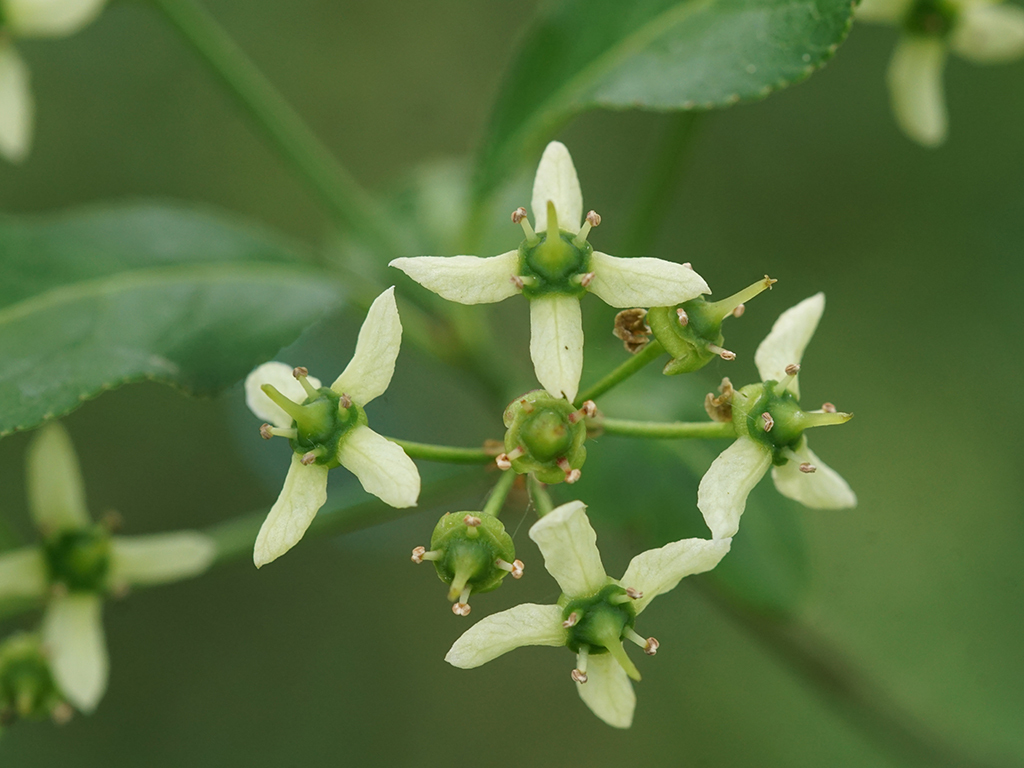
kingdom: Plantae
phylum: Tracheophyta
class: Magnoliopsida
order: Celastrales
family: Celastraceae
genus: Euonymus
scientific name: Euonymus europaeus
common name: Spindle
